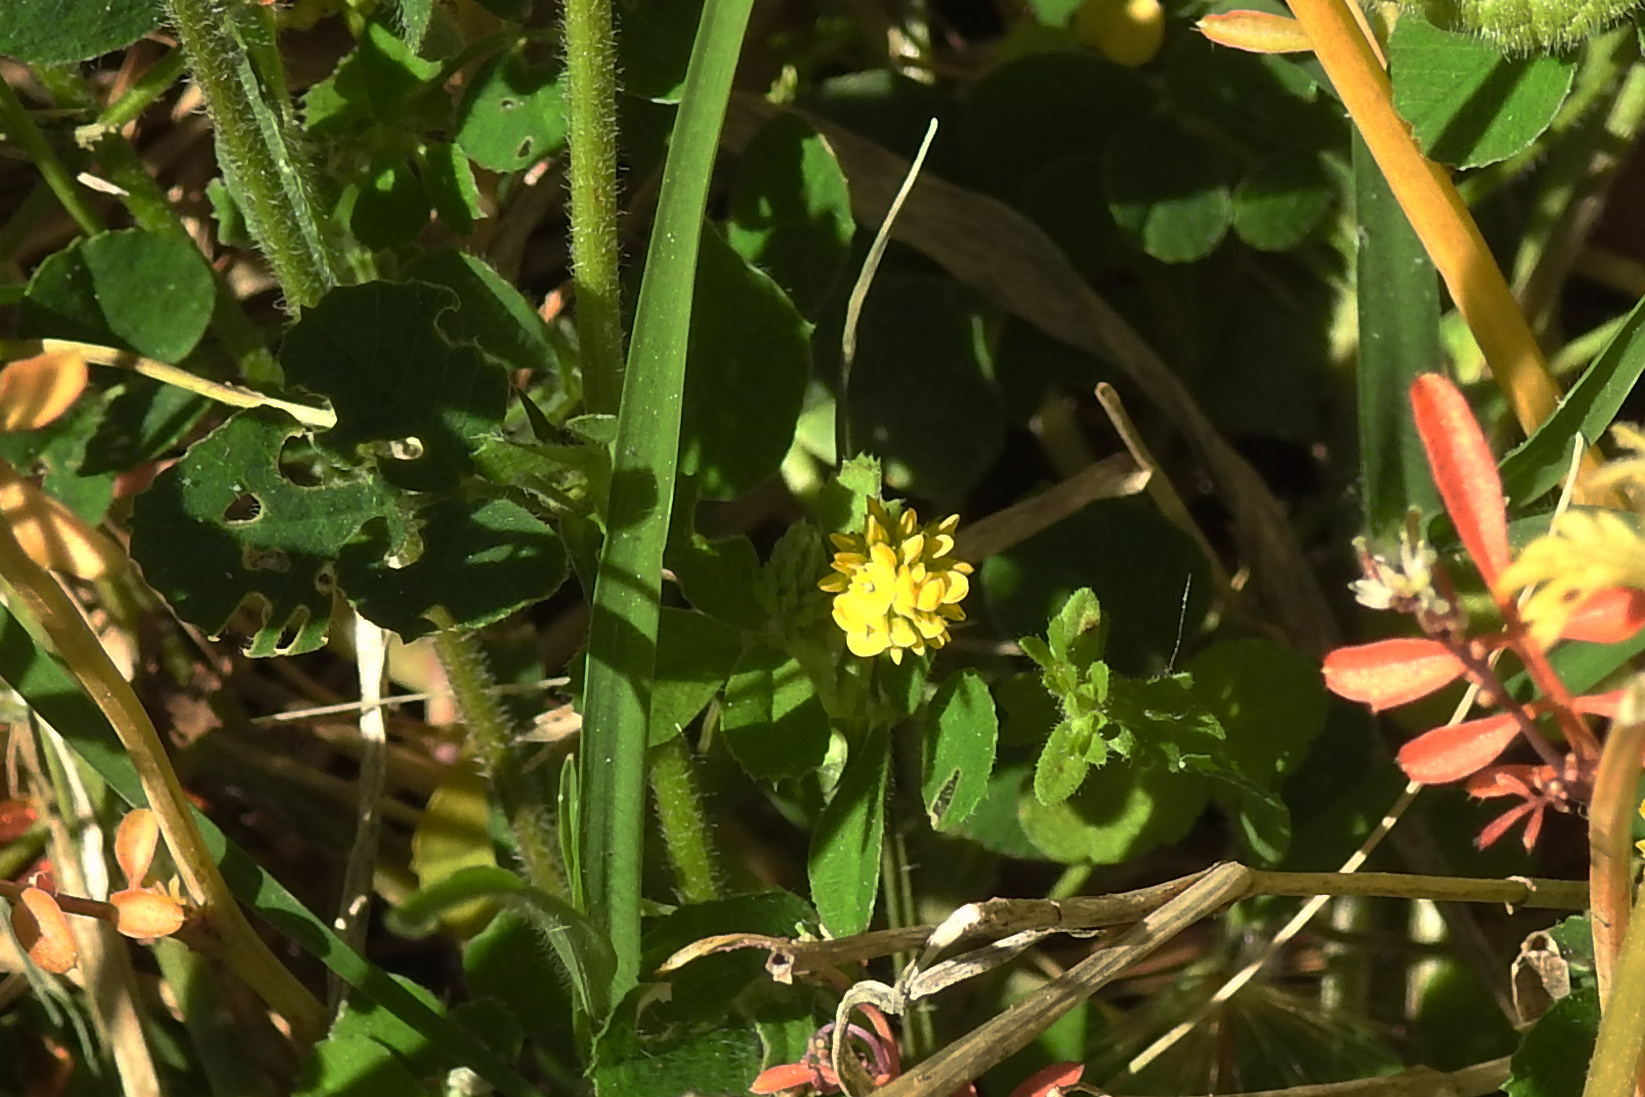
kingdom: Plantae
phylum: Tracheophyta
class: Magnoliopsida
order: Fabales
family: Fabaceae
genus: Medicago
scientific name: Medicago lupulina
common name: Black medick
